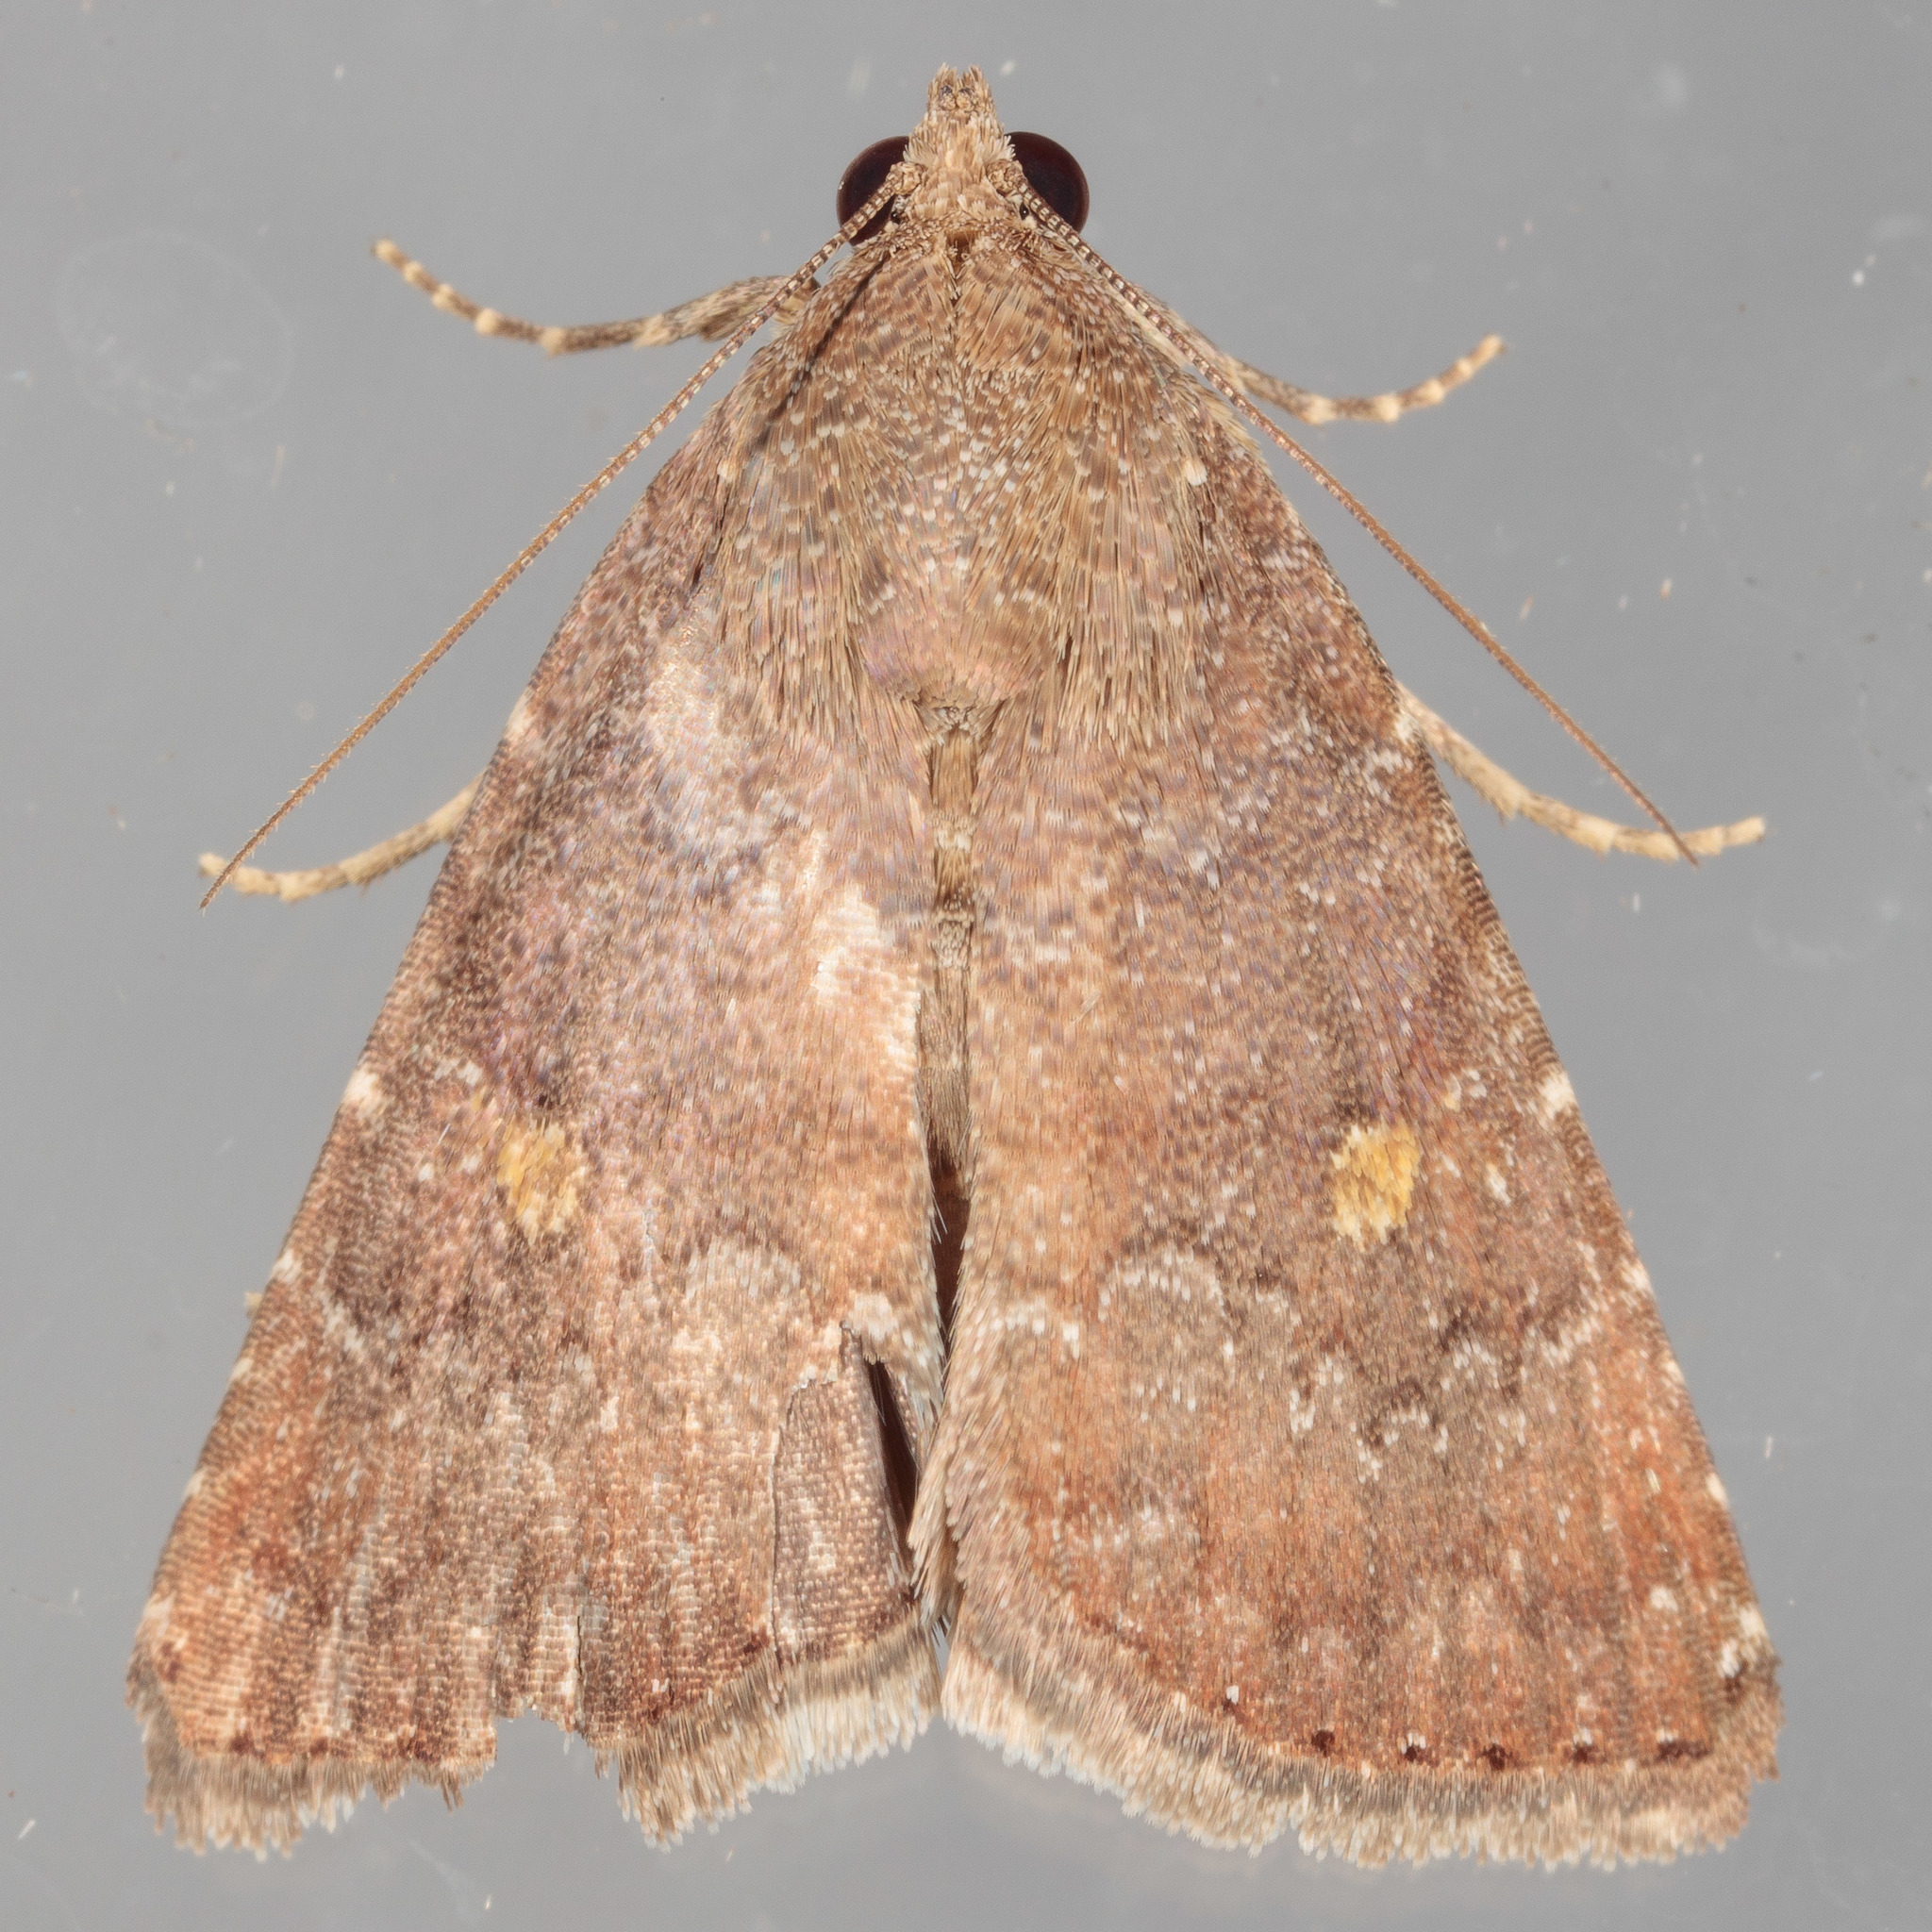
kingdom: Animalia
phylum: Arthropoda
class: Insecta
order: Lepidoptera
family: Noctuidae
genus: Amyna
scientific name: Amyna stricta
